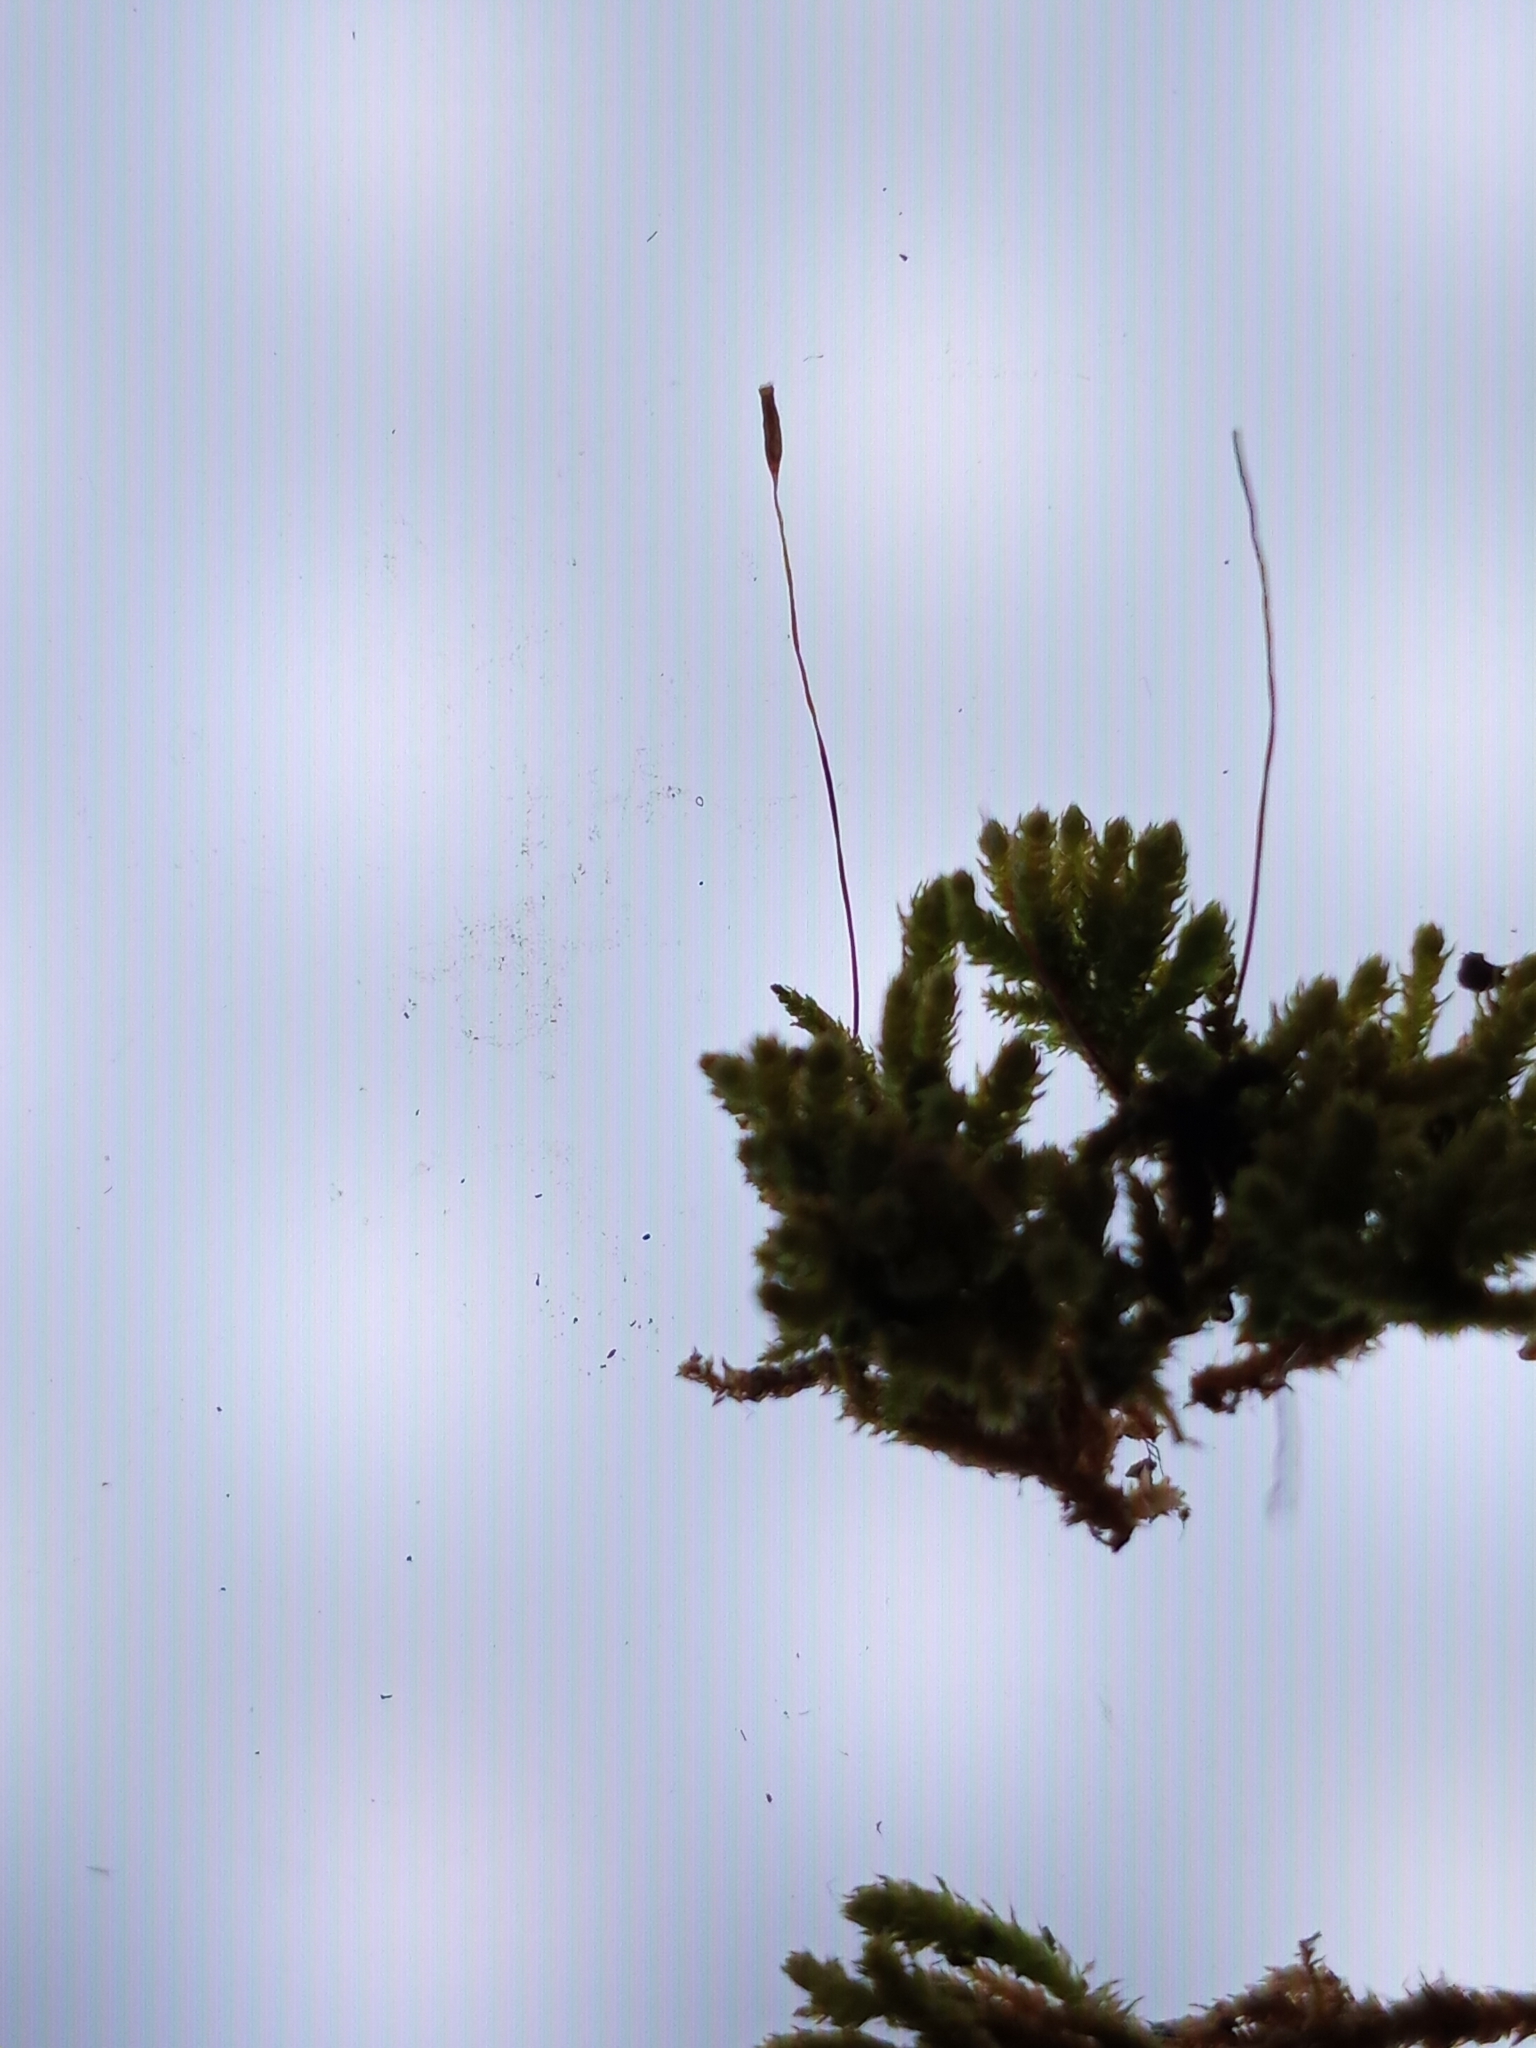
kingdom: Plantae
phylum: Bryophyta
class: Bryopsida
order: Hypnales
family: Brachytheciaceae
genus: Claopodium
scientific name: Claopodium rostratum
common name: Yellow yarn moss
